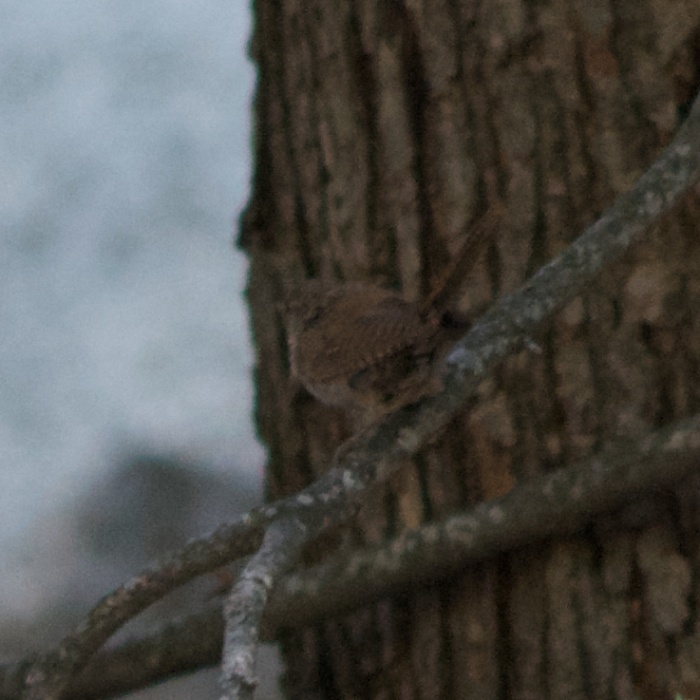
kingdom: Animalia
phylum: Chordata
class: Aves
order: Passeriformes
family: Troglodytidae
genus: Troglodytes
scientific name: Troglodytes aedon
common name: House wren
